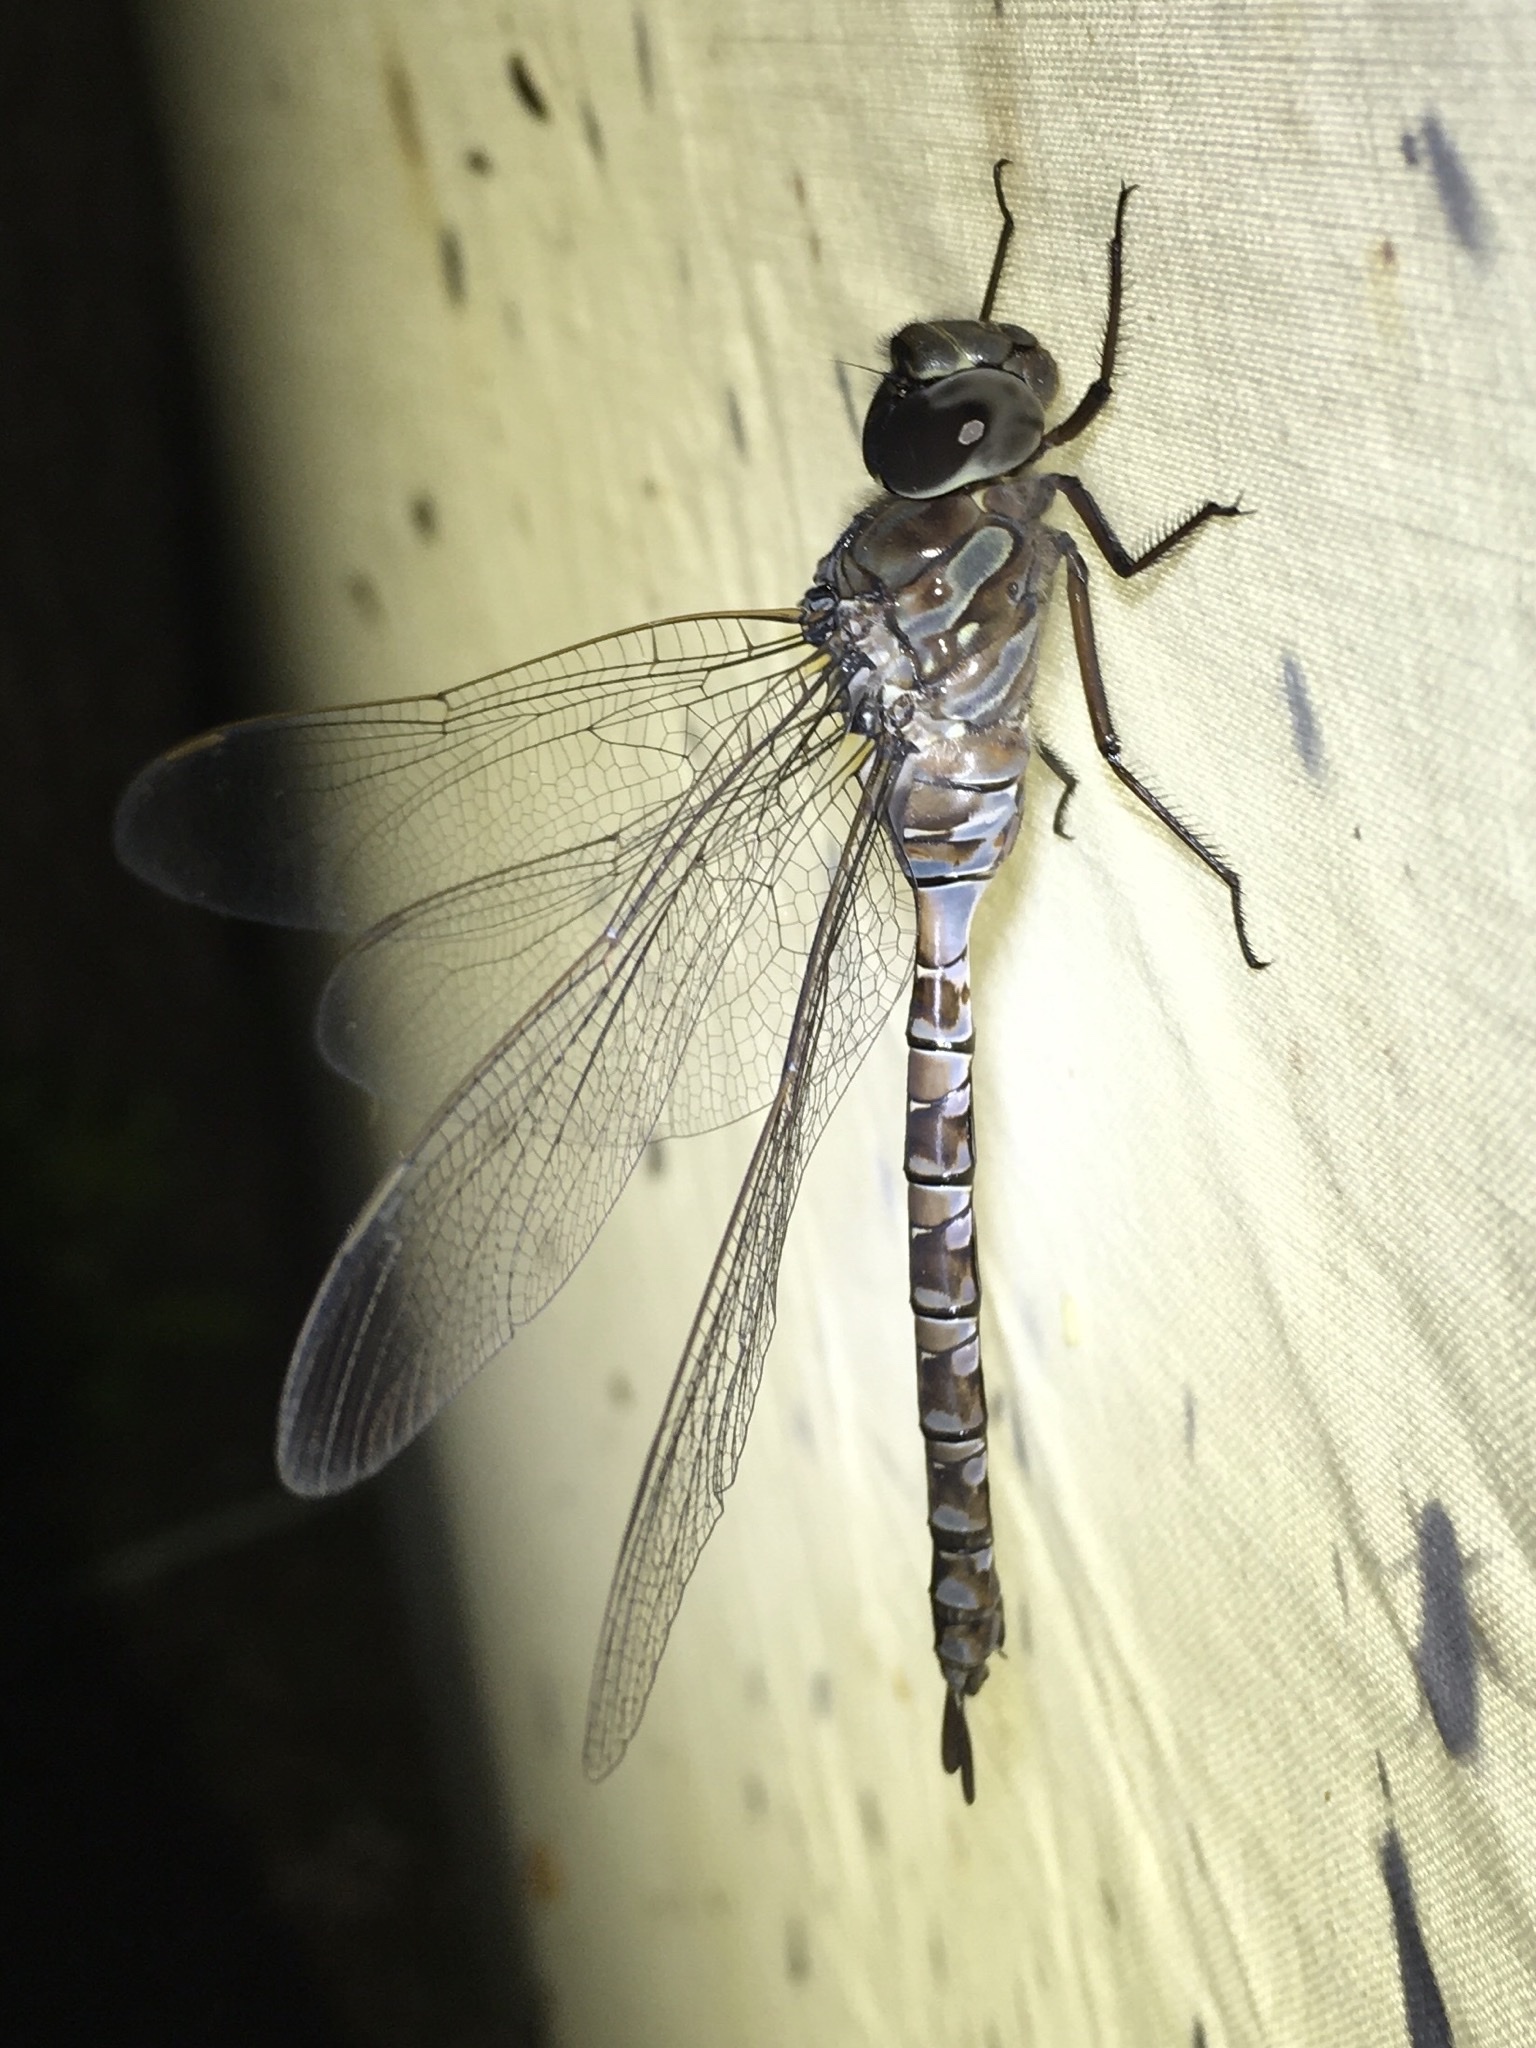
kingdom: Animalia
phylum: Arthropoda
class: Insecta
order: Odonata
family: Aeshnidae
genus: Aeshna
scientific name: Aeshna canadensis
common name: Canada darner
